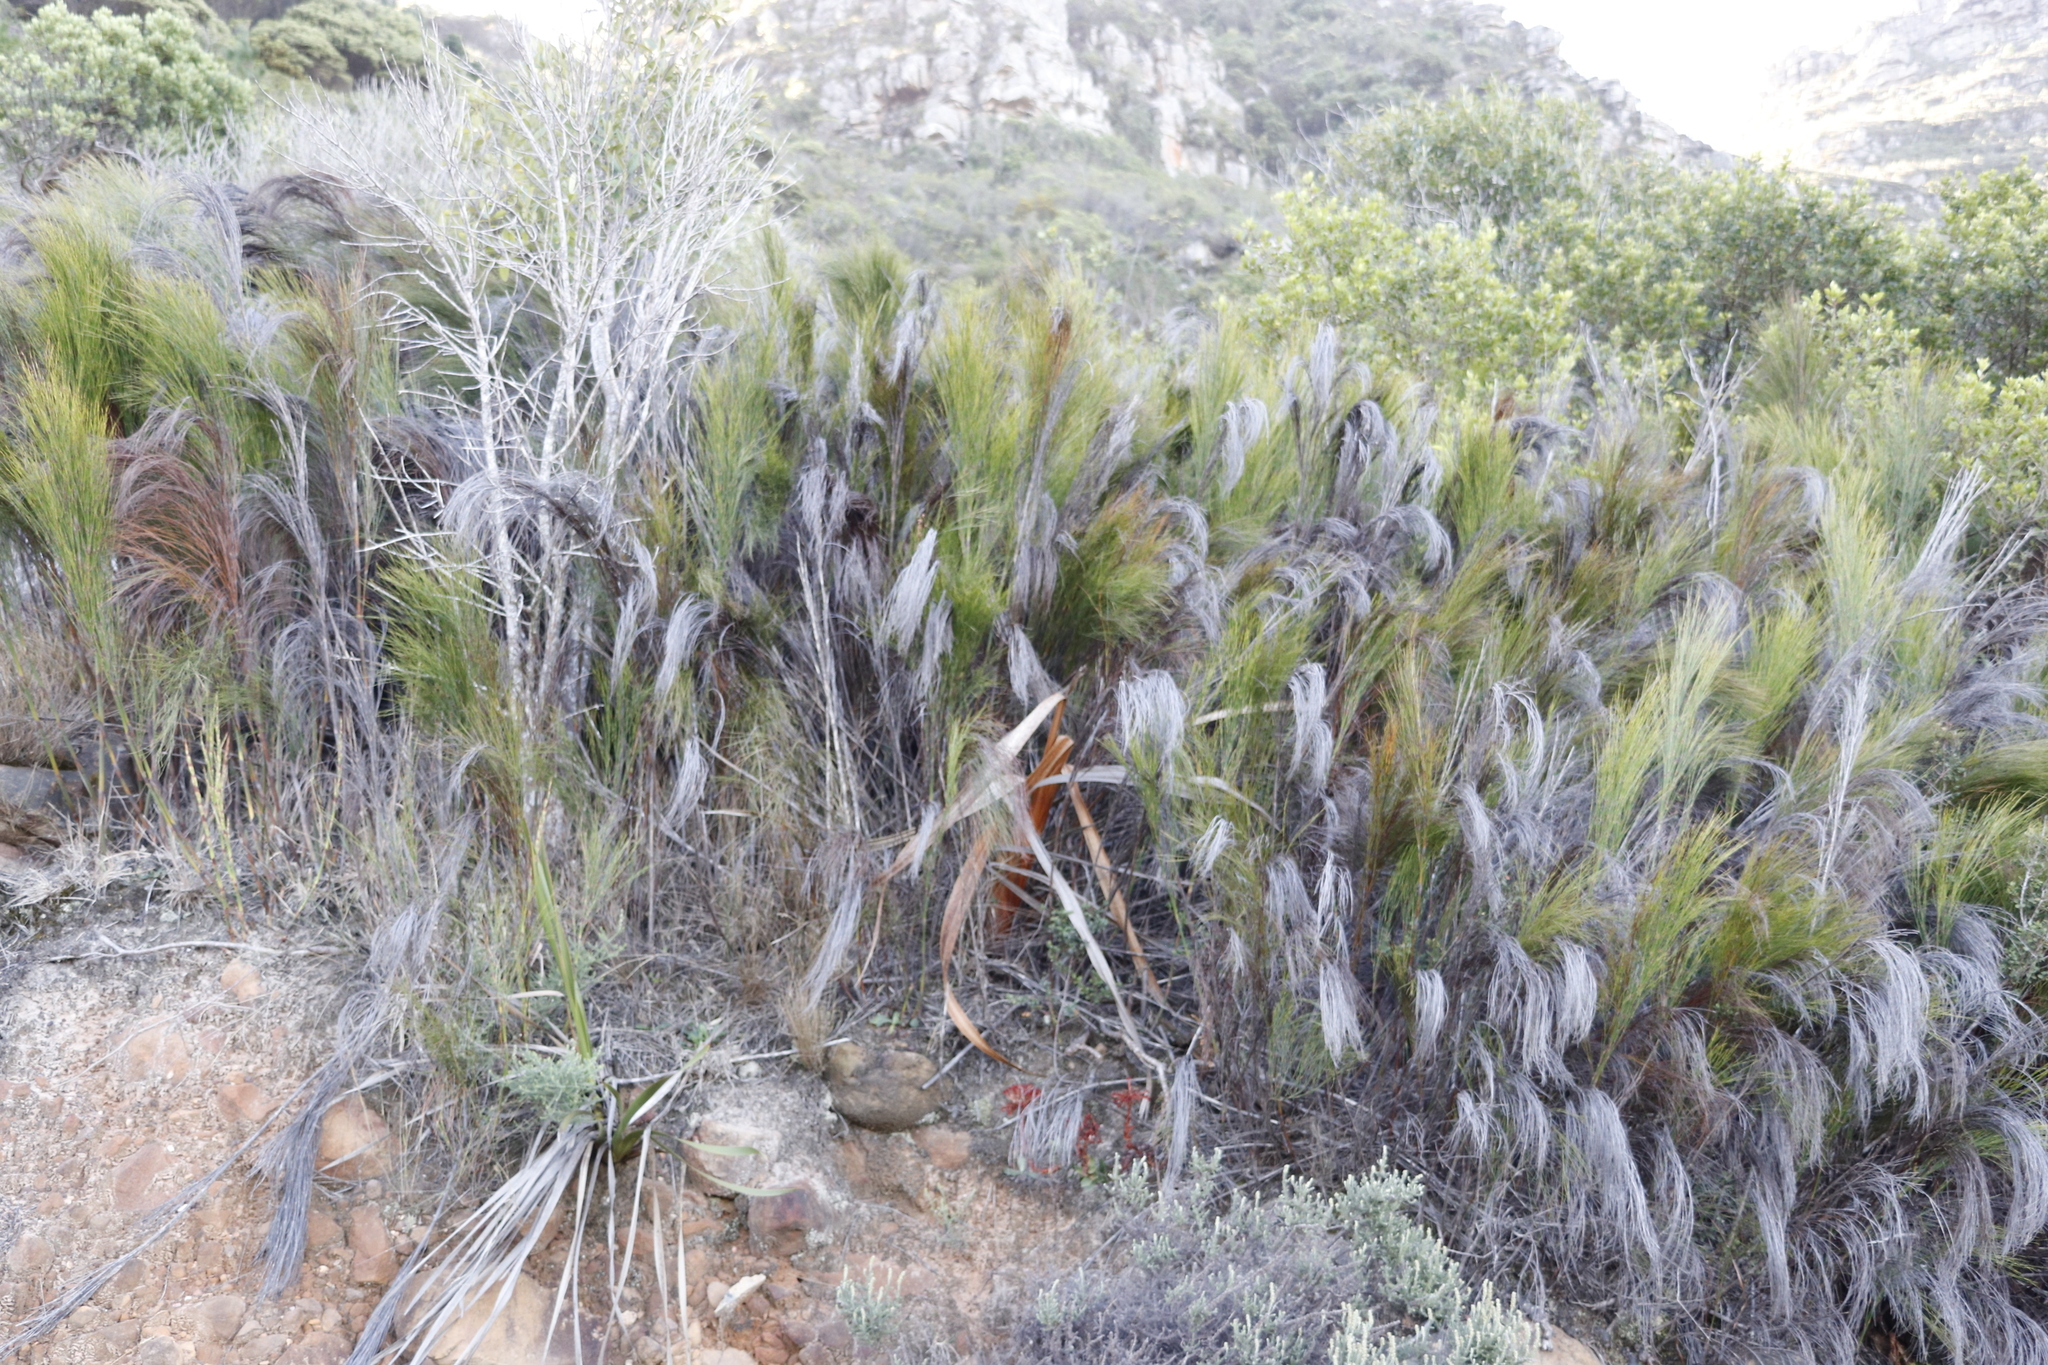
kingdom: Plantae
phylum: Tracheophyta
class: Liliopsida
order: Poales
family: Restionaceae
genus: Cannomois
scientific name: Cannomois virgata
